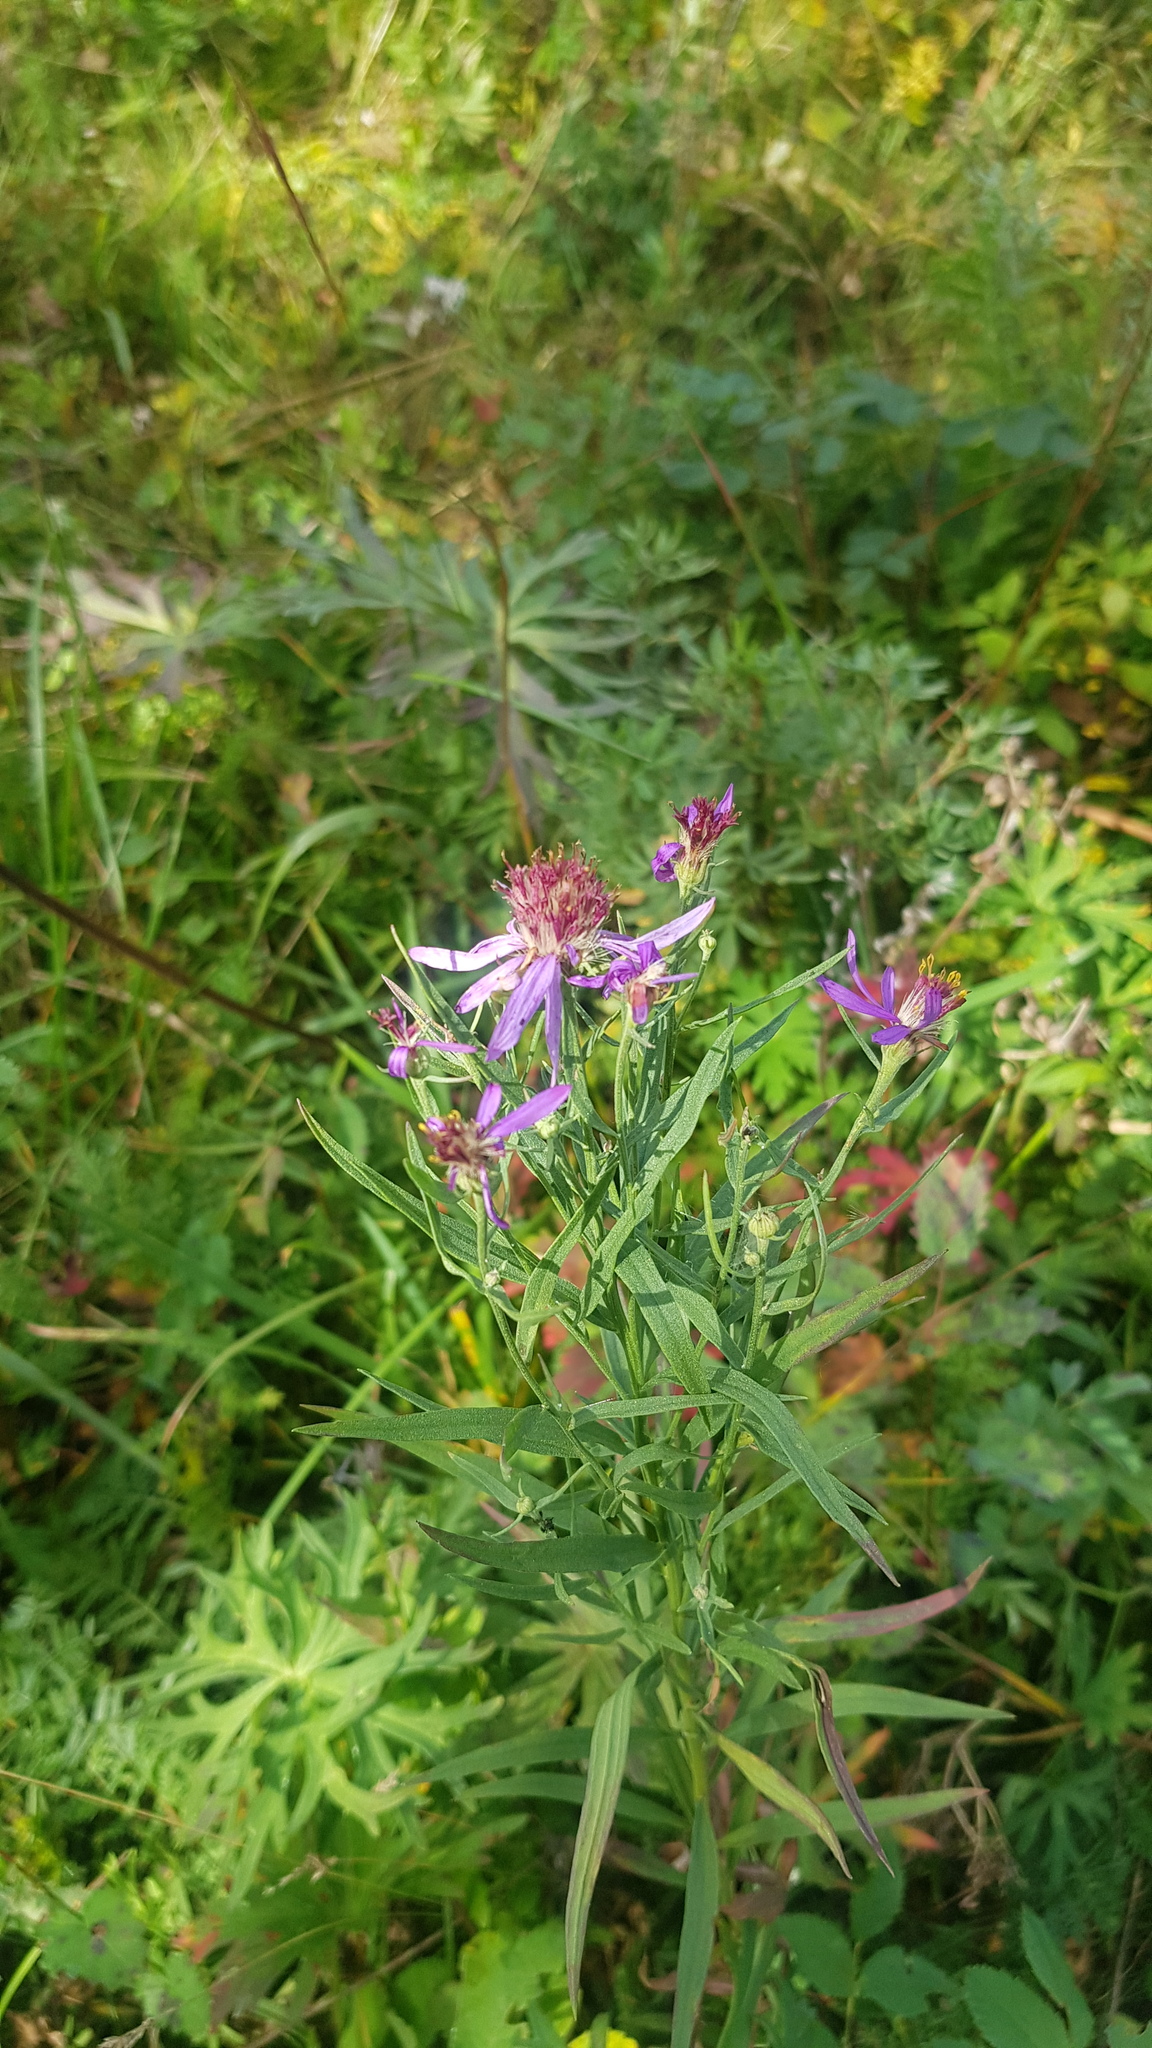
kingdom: Plantae
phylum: Tracheophyta
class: Magnoliopsida
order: Asterales
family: Asteraceae
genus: Galatella
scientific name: Galatella dahurica
